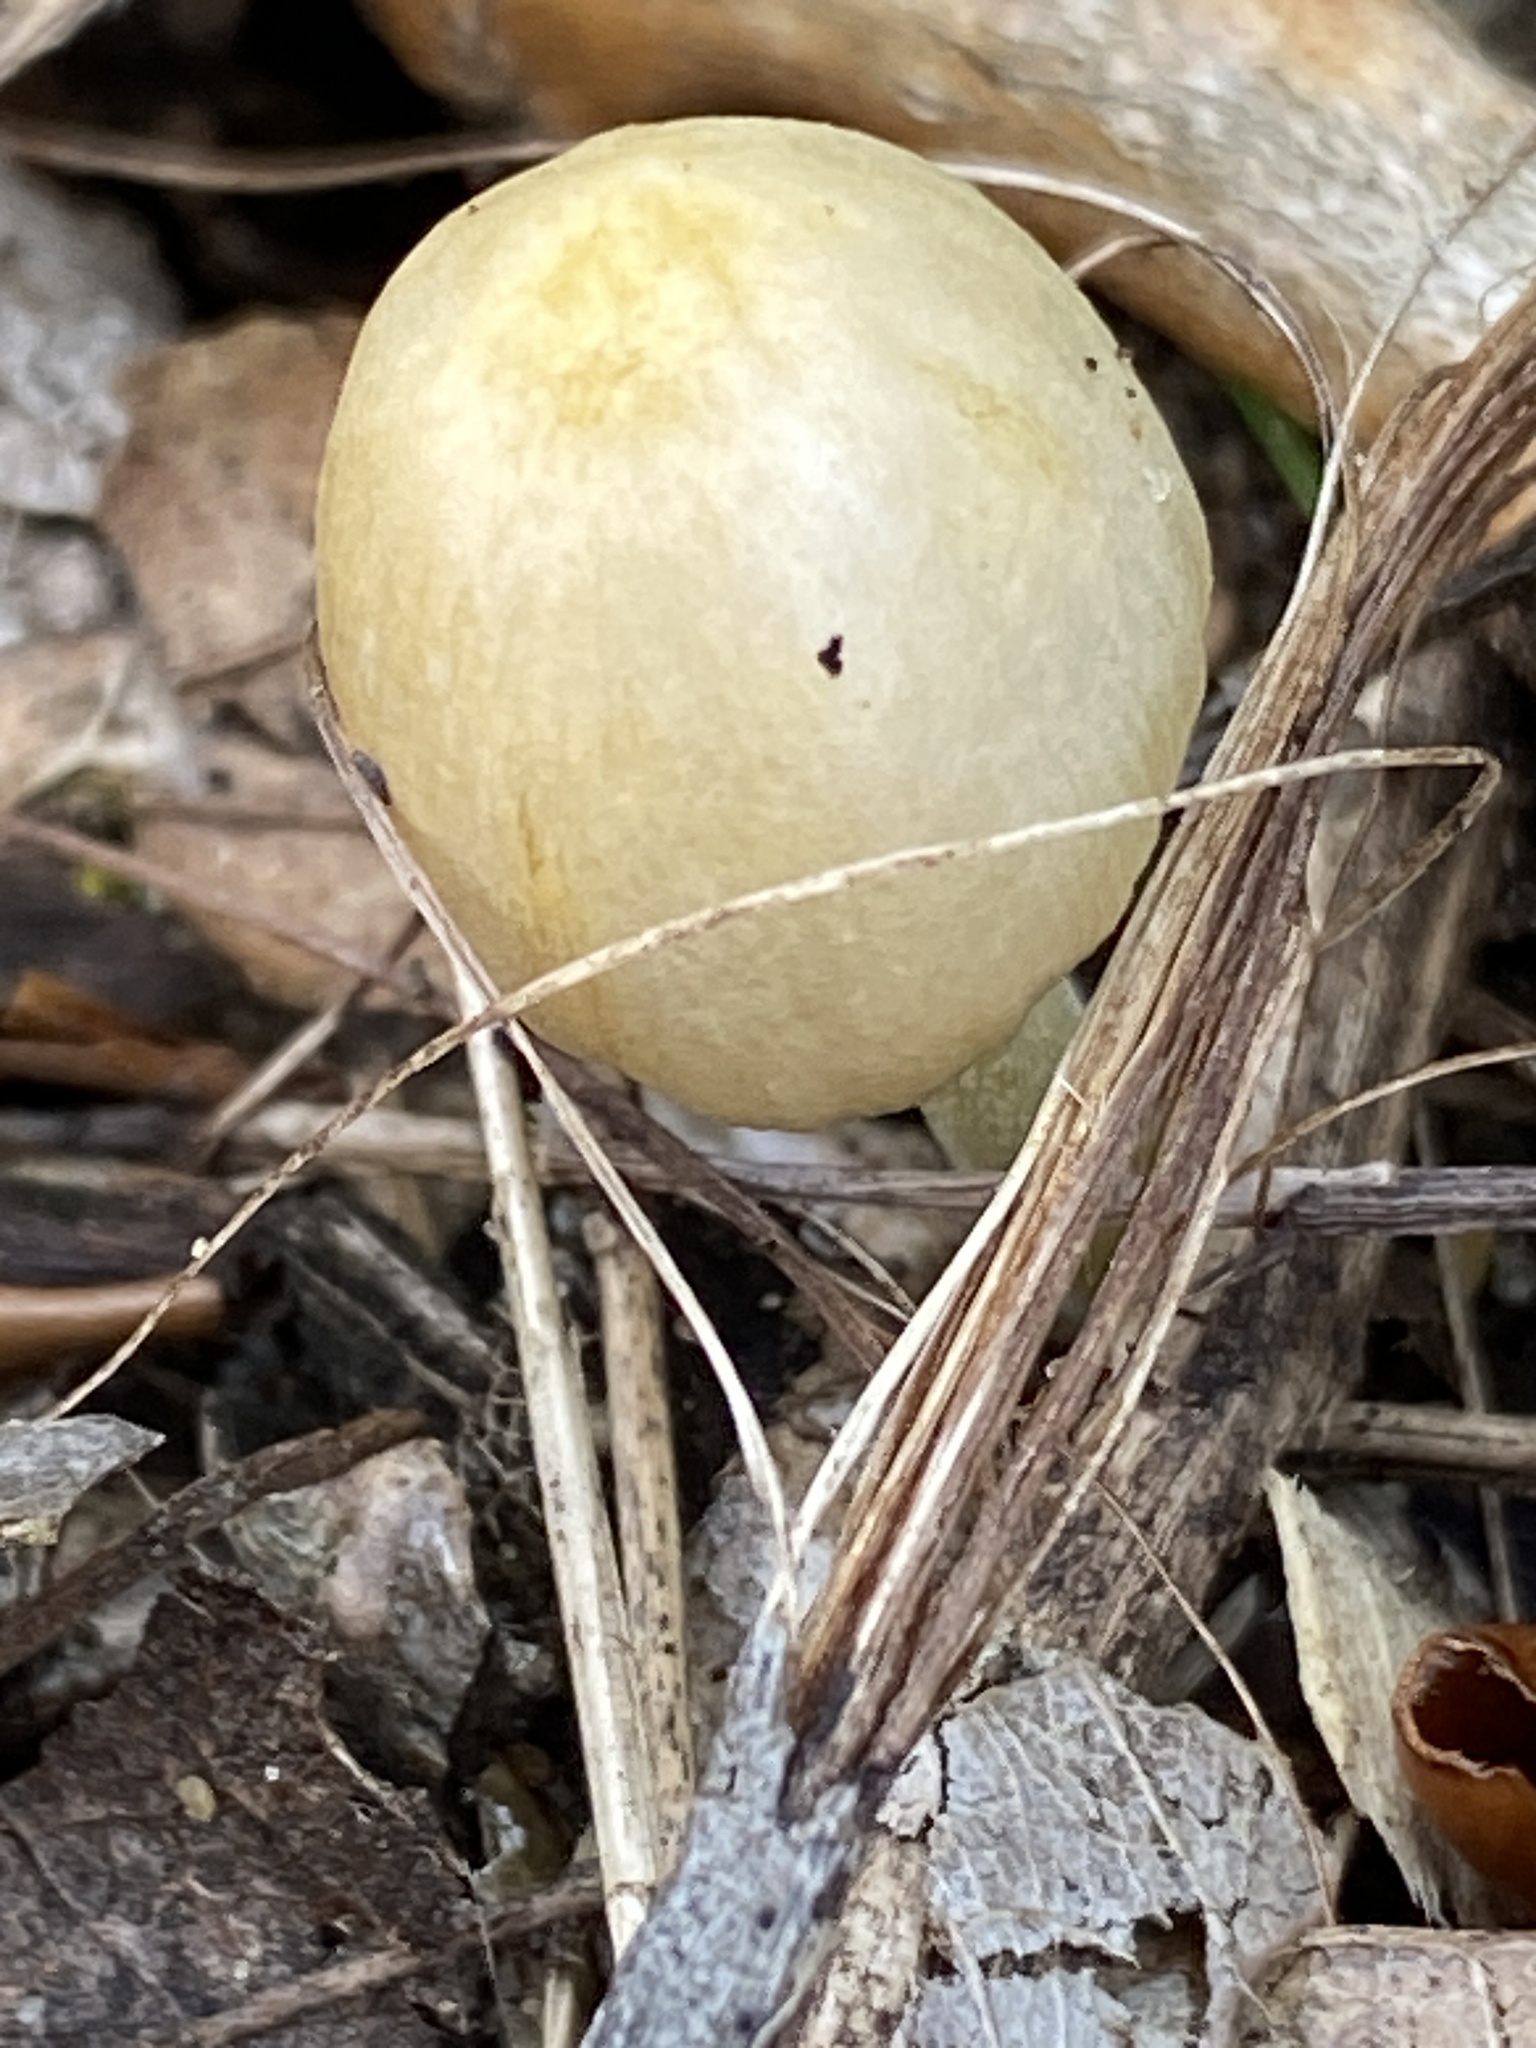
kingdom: Fungi
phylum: Basidiomycota
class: Agaricomycetes
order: Agaricales
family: Bolbitiaceae
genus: Bolbitius
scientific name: Bolbitius titubans
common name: Yellow fieldcap
